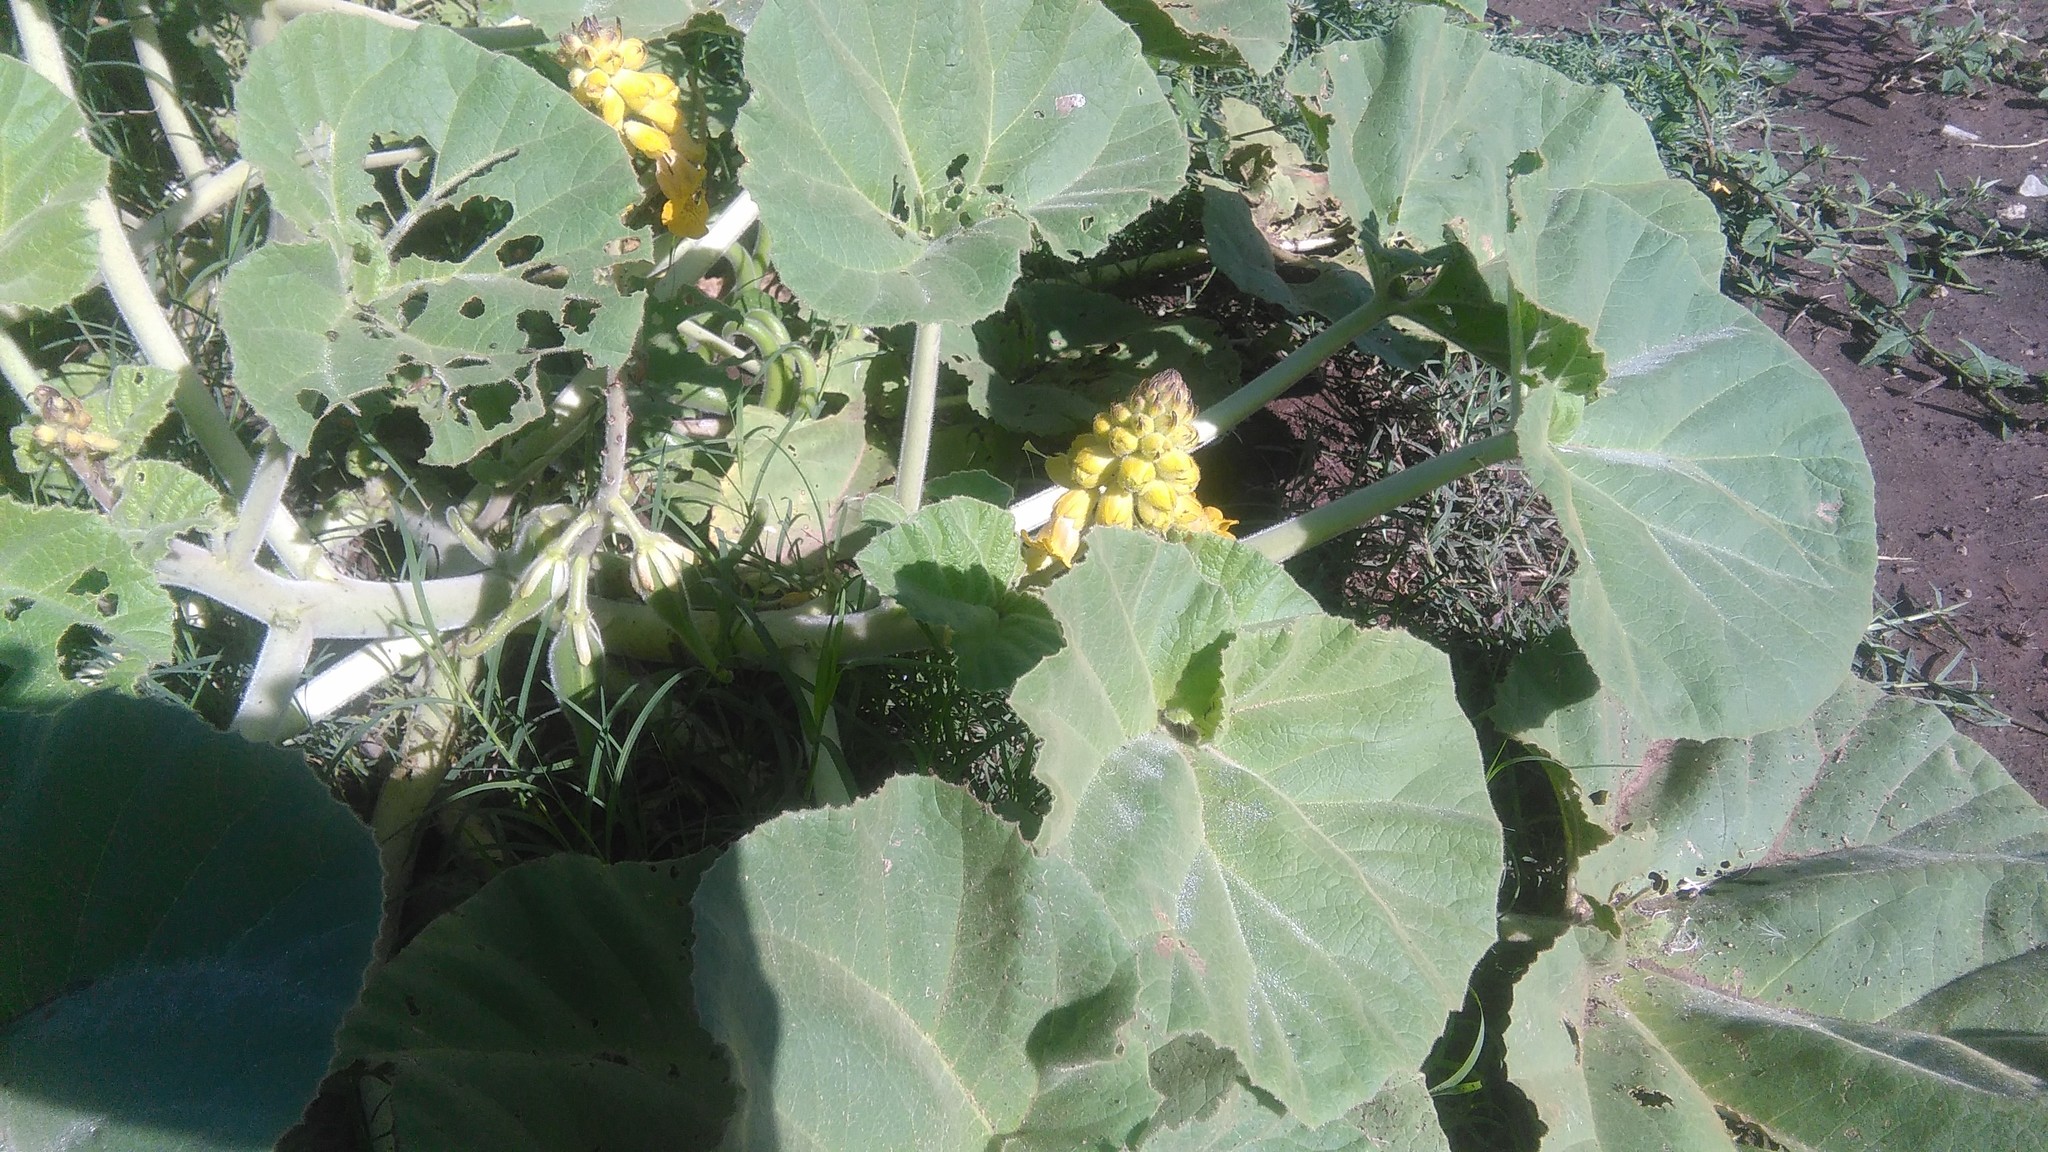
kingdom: Plantae
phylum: Tracheophyta
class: Magnoliopsida
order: Lamiales
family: Martyniaceae
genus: Ibicella
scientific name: Ibicella lutea
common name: Yellow unicorn-plant
